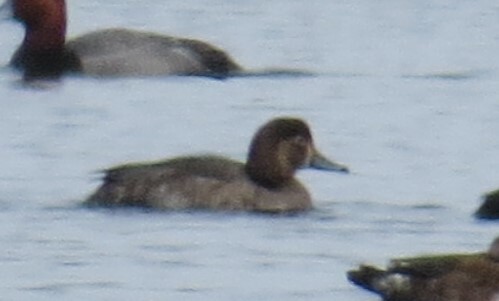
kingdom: Animalia
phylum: Chordata
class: Aves
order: Anseriformes
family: Anatidae
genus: Aythya
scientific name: Aythya americana
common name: Redhead
